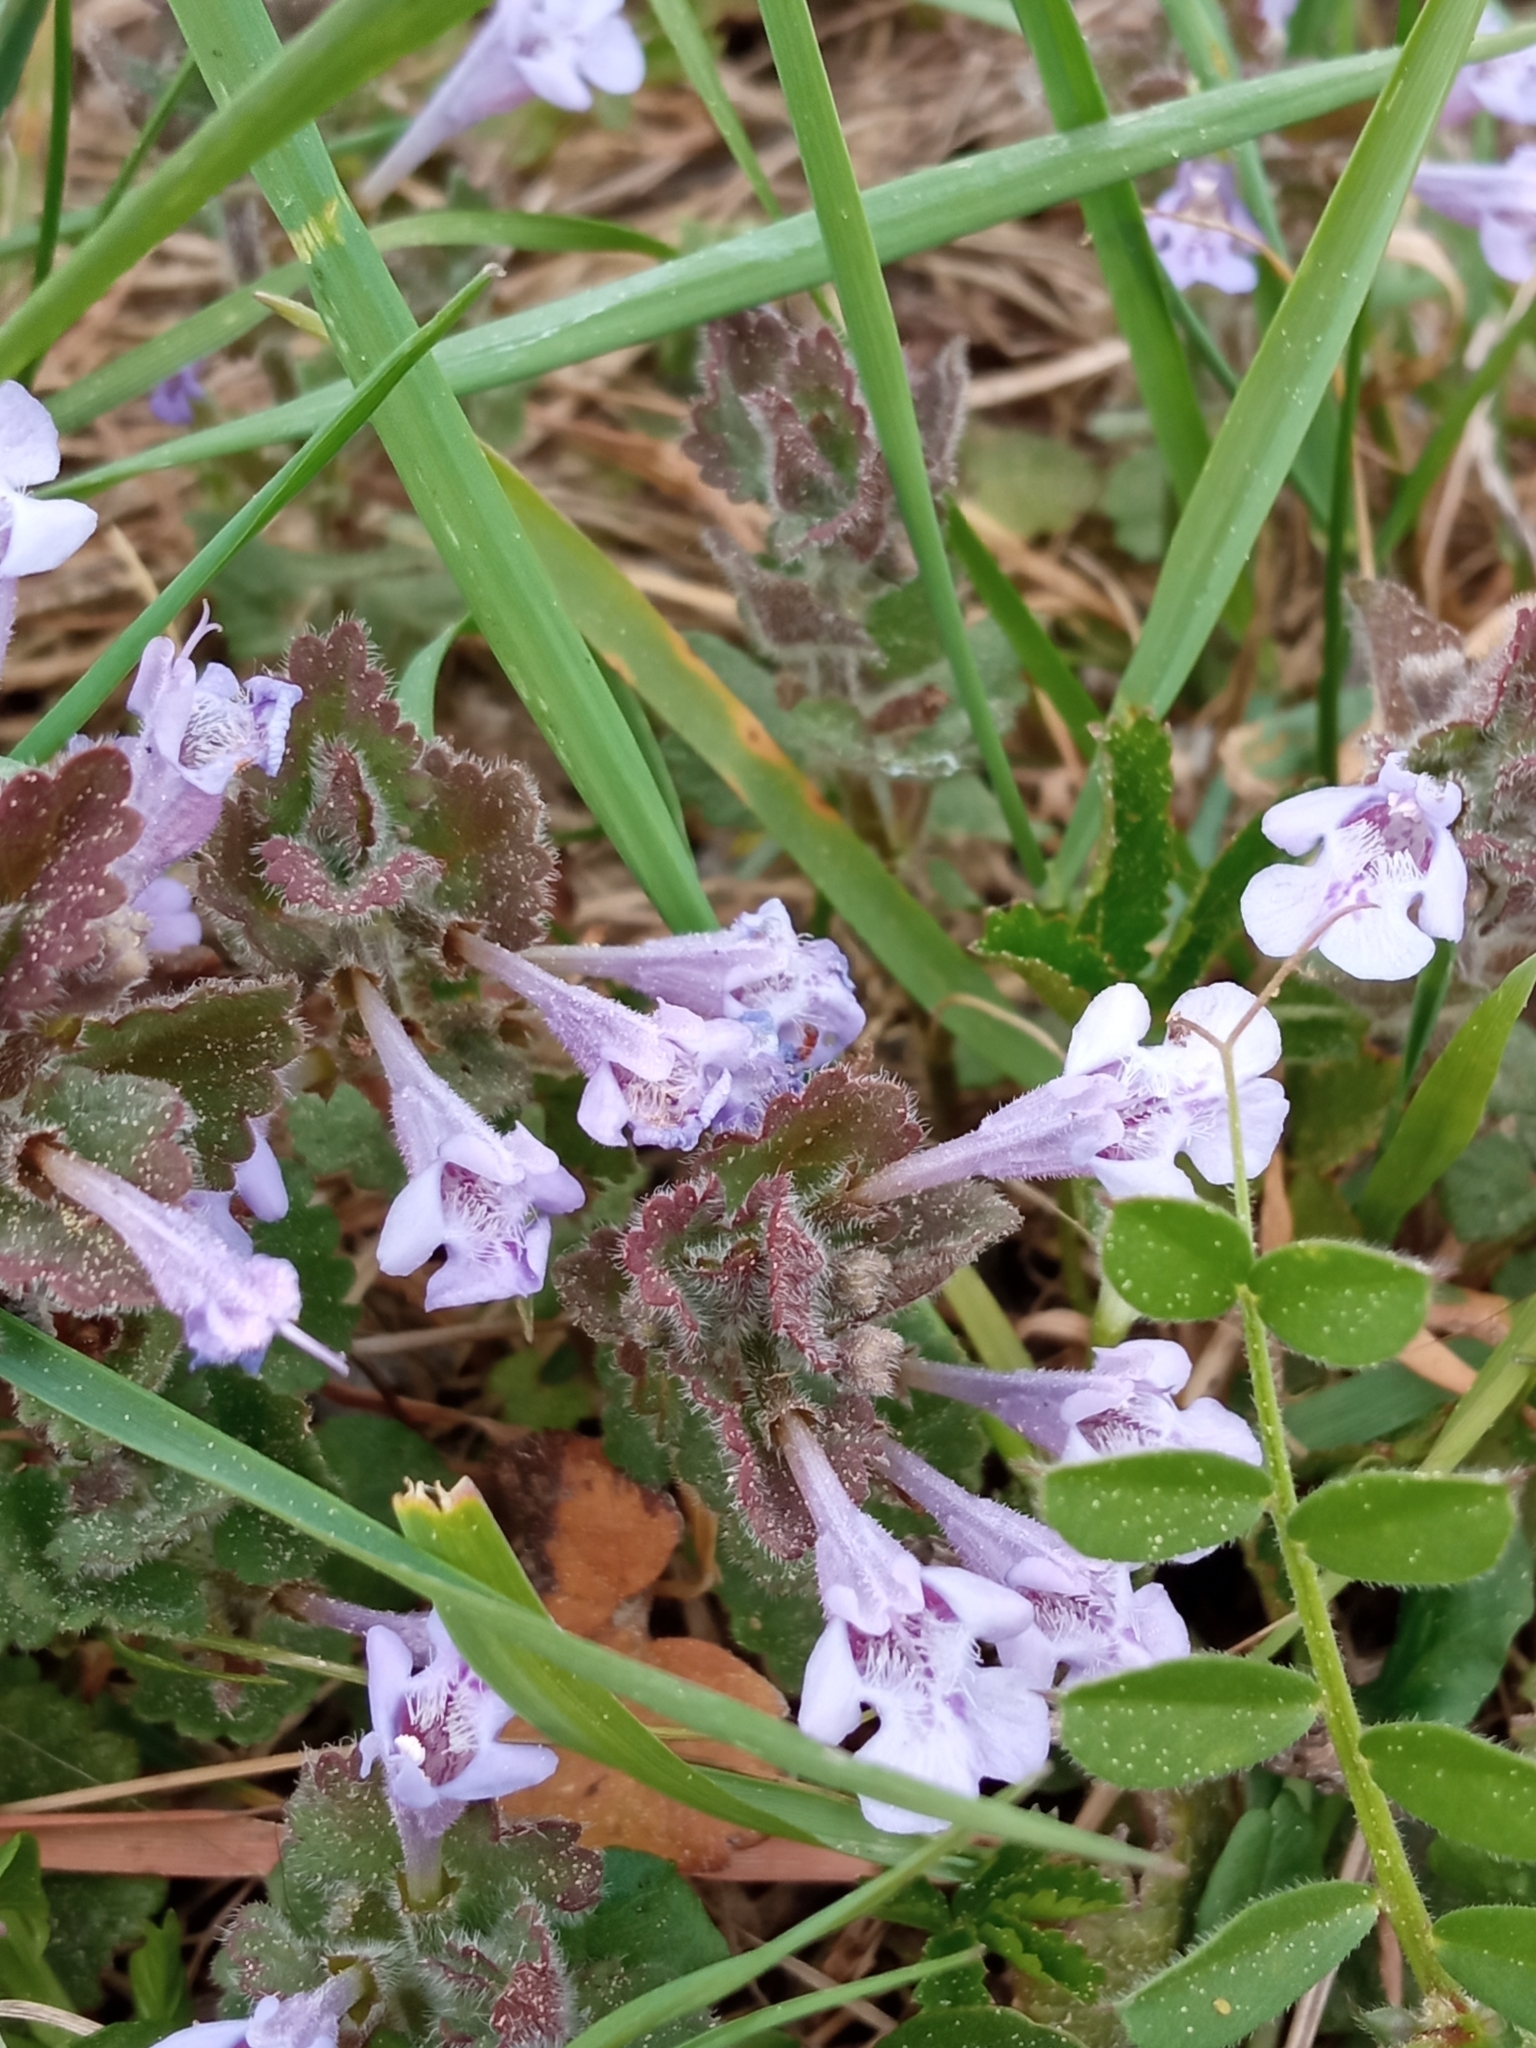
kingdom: Plantae
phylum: Tracheophyta
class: Magnoliopsida
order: Lamiales
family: Lamiaceae
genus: Glechoma
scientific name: Glechoma hederacea
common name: Ground ivy
